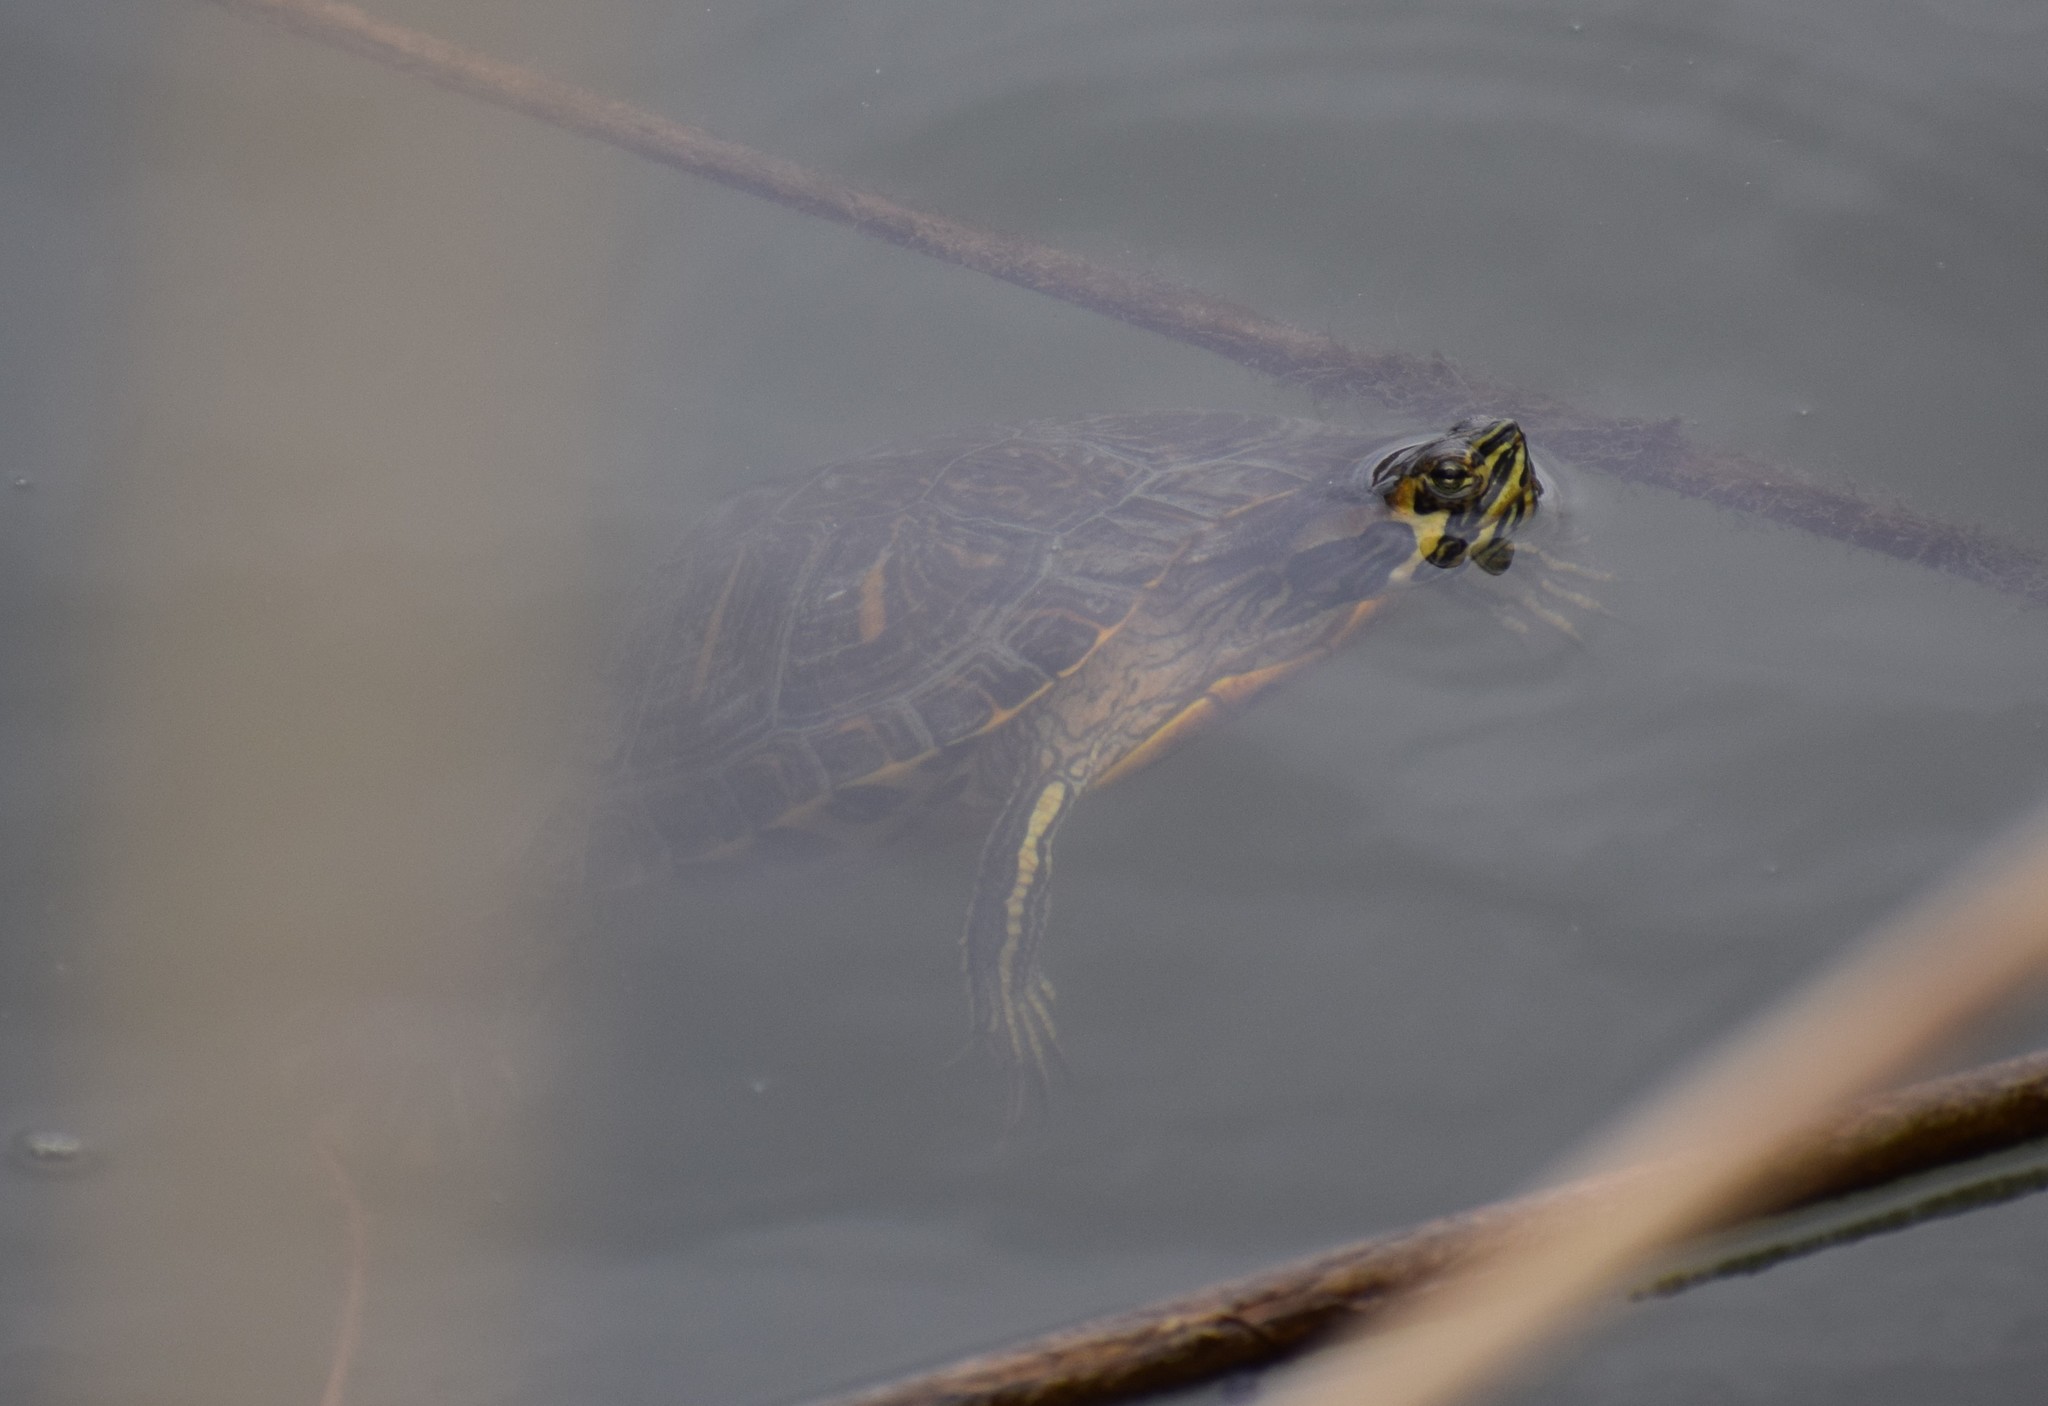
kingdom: Animalia
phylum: Chordata
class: Testudines
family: Emydidae
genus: Trachemys
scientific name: Trachemys scripta
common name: Slider
